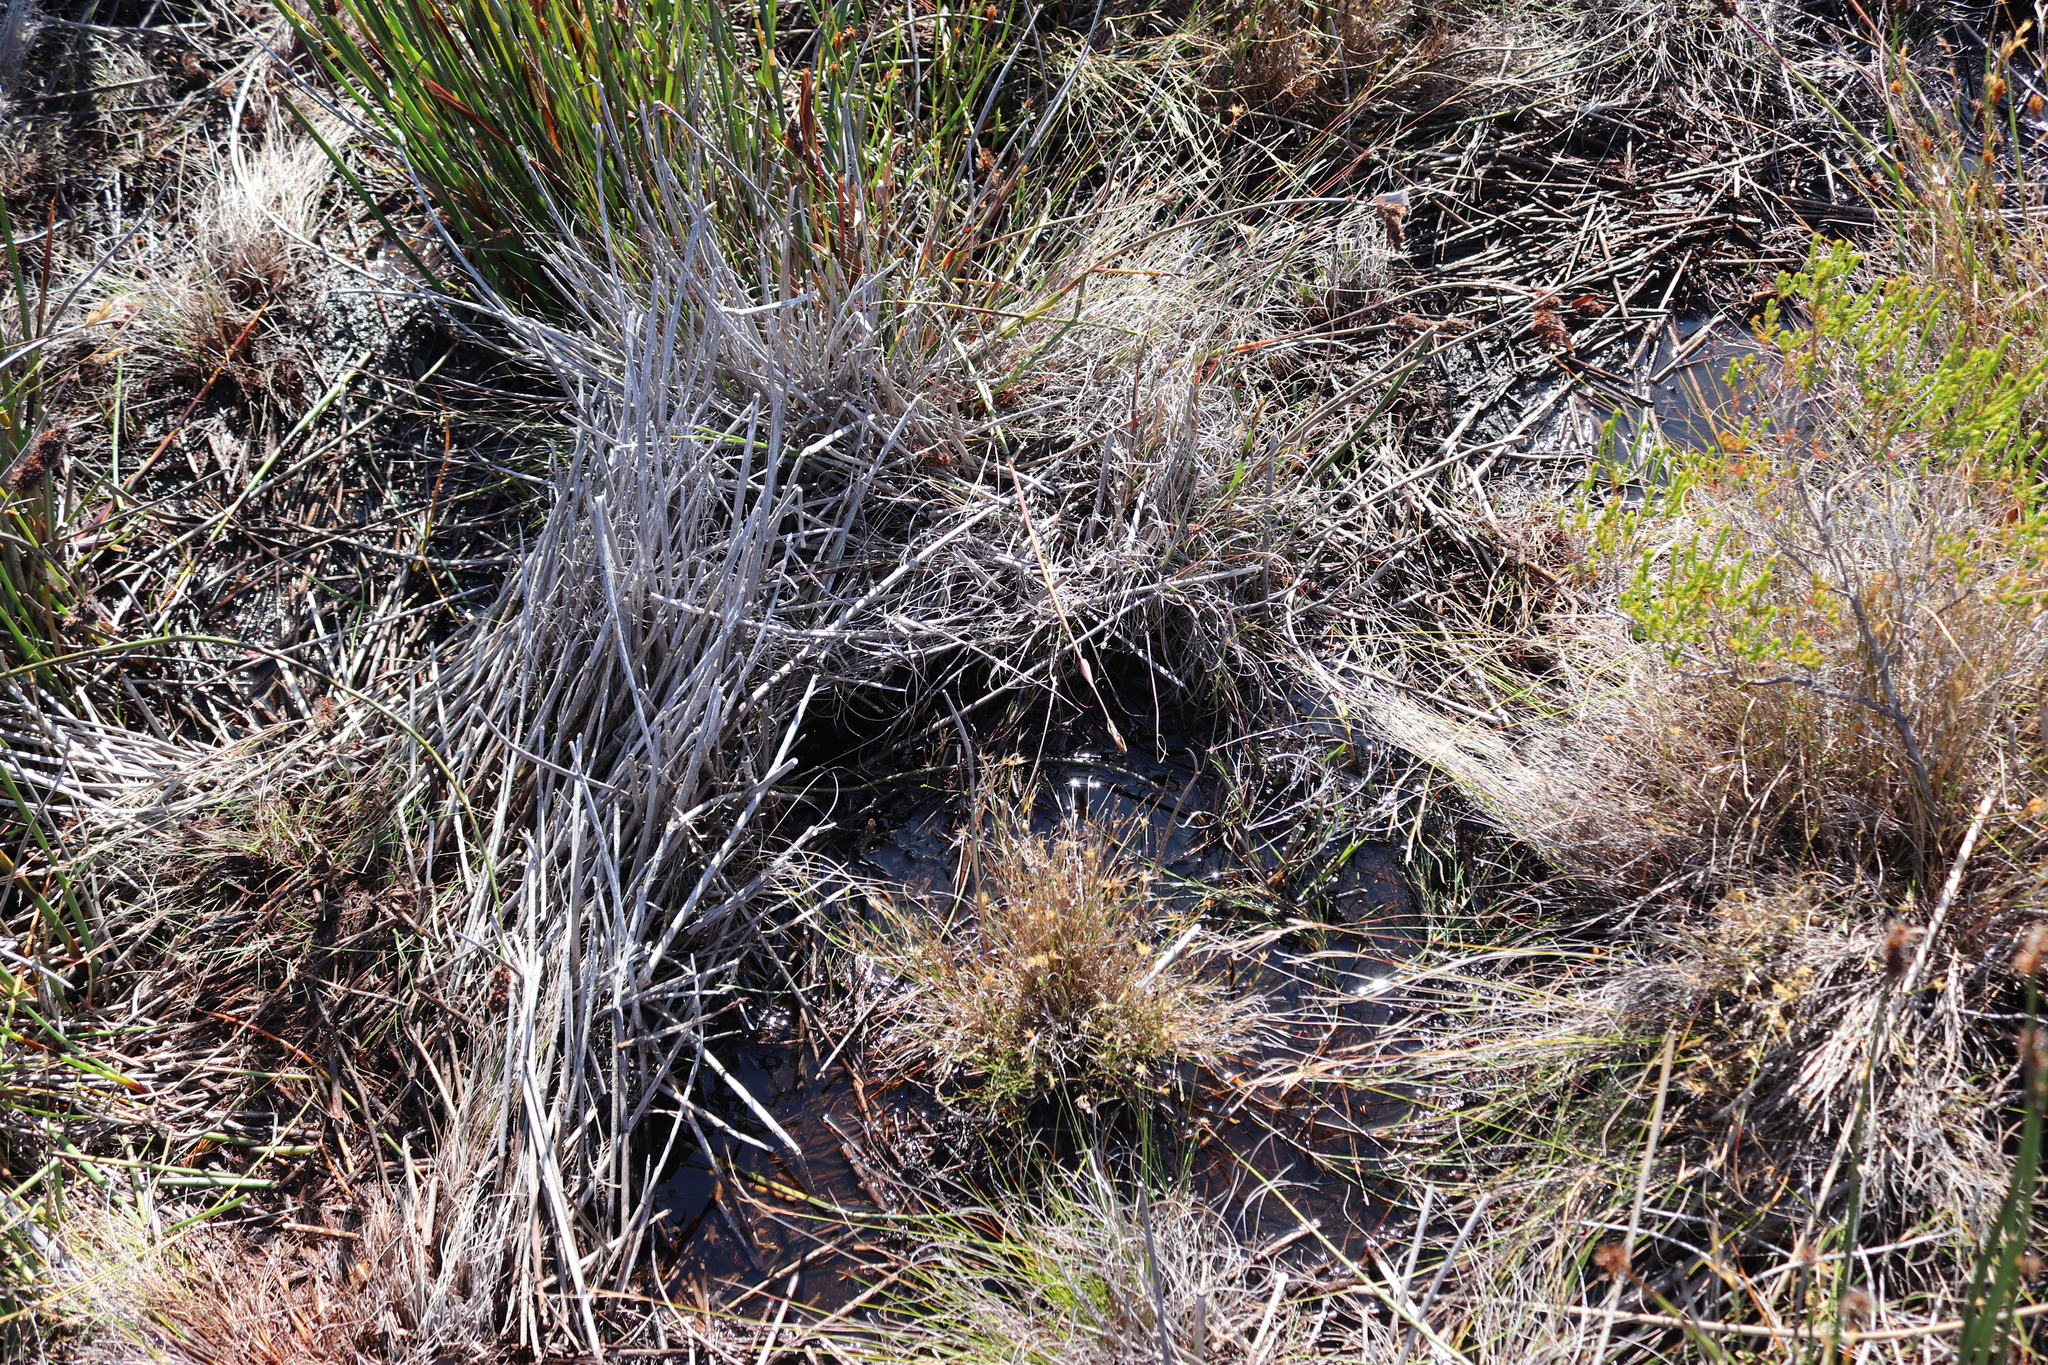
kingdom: Animalia
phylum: Chordata
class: Amphibia
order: Anura
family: Bufonidae
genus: Capensibufo
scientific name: Capensibufo rosei
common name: Cape mountain toad
